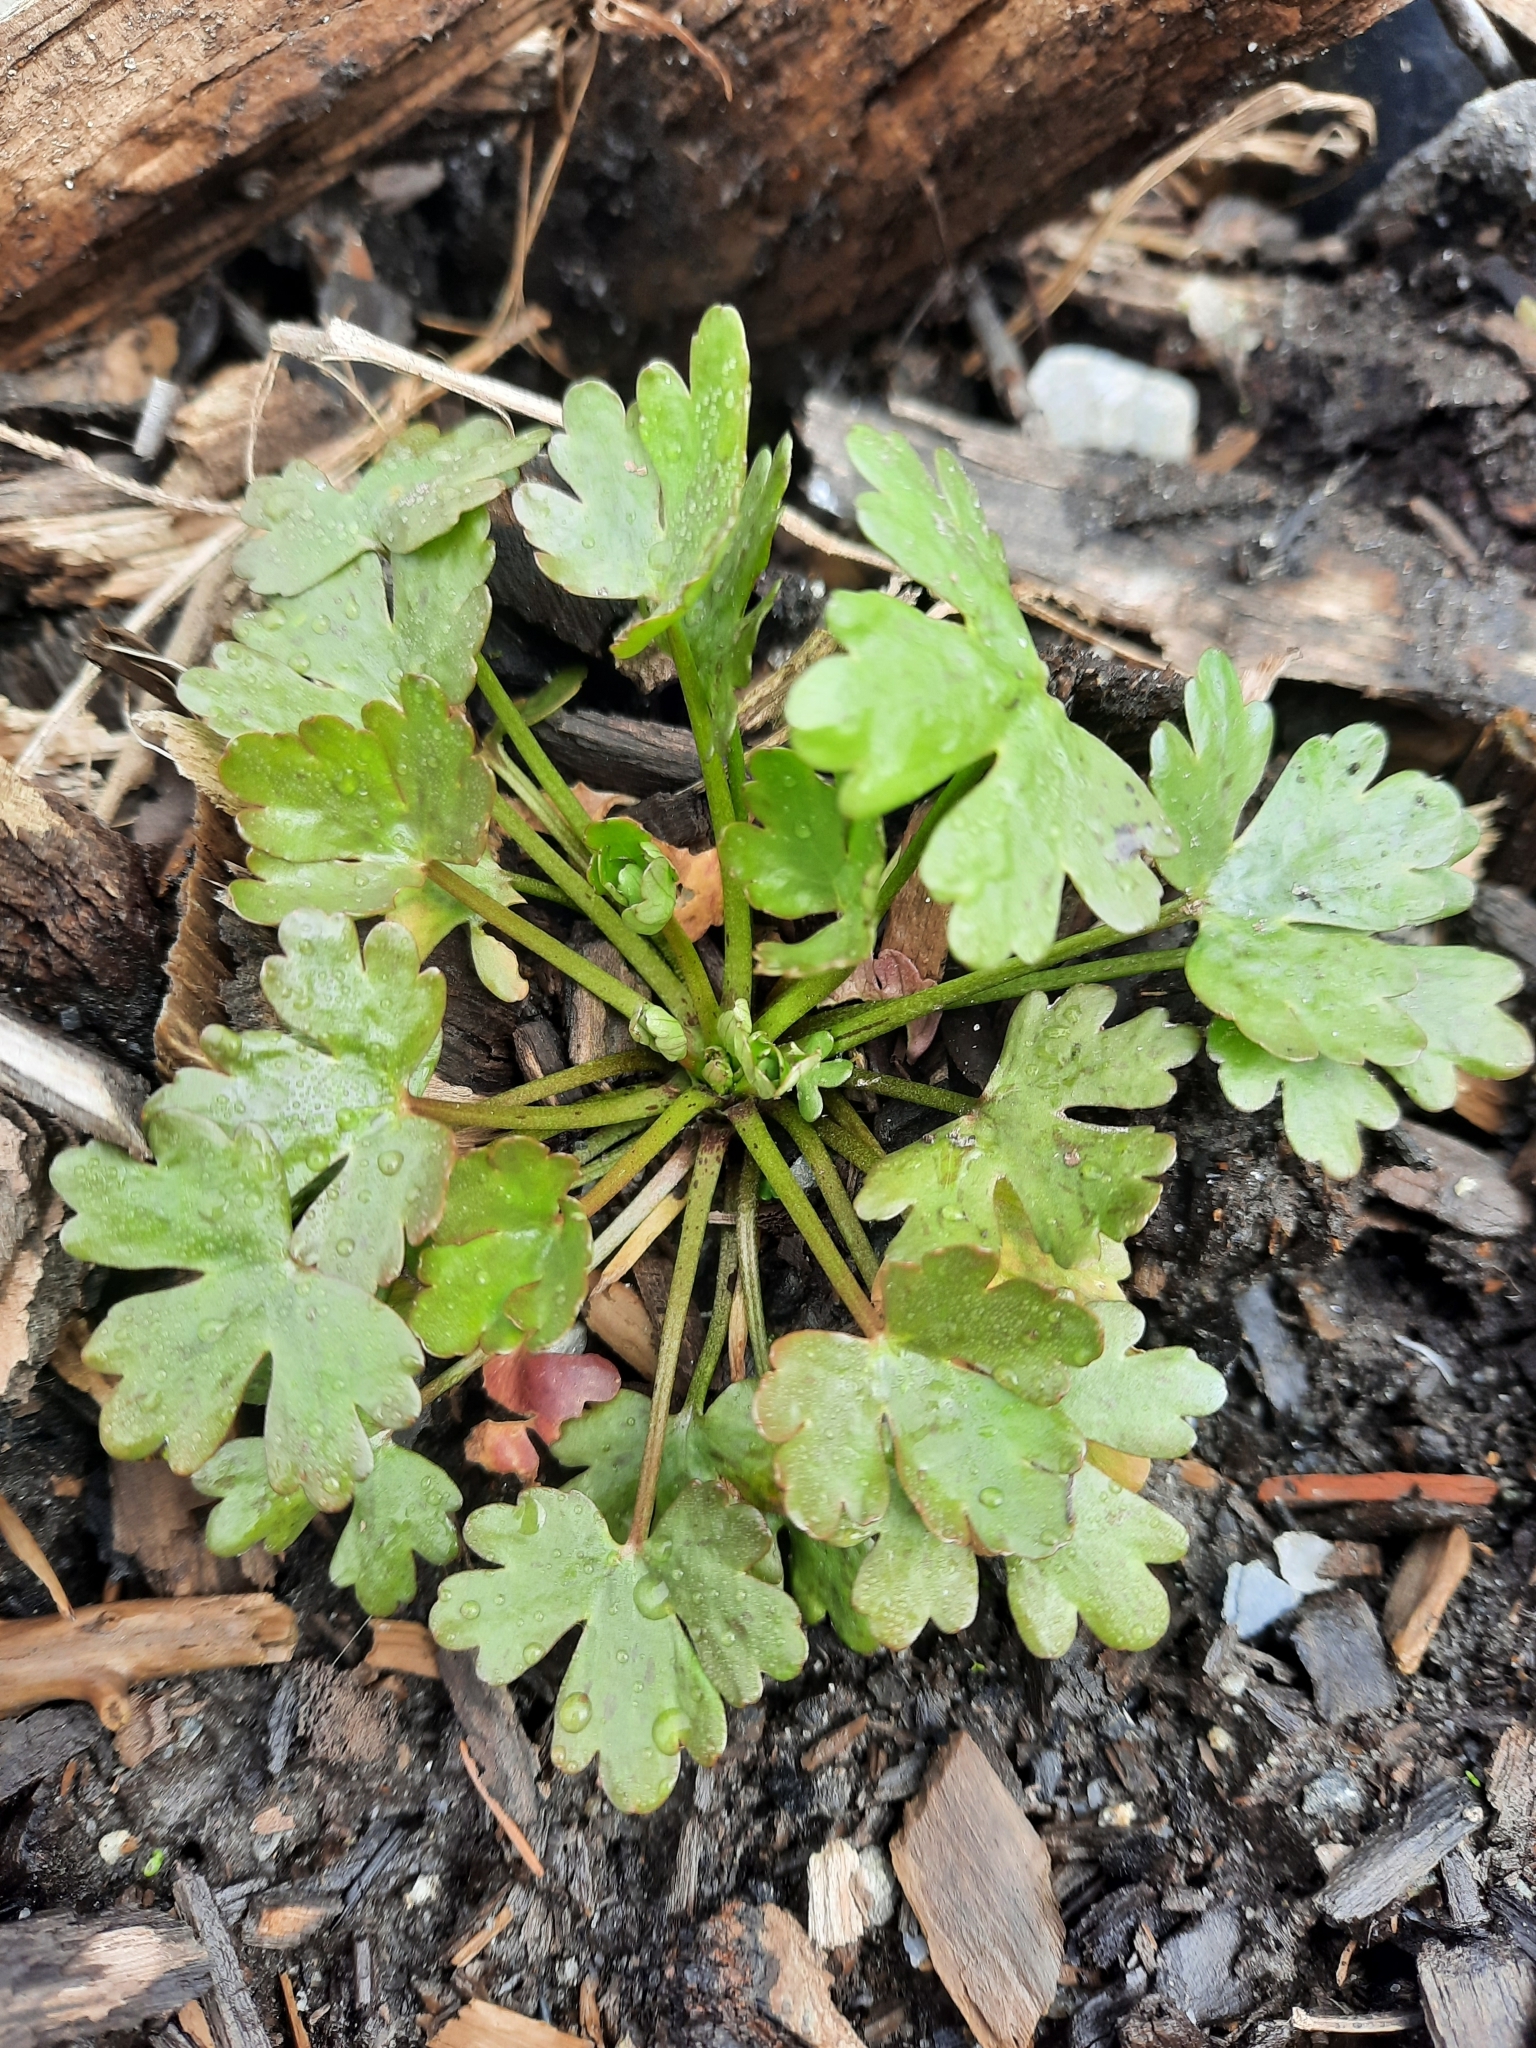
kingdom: Plantae
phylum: Tracheophyta
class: Magnoliopsida
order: Ranunculales
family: Ranunculaceae
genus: Ranunculus
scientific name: Ranunculus sceleratus
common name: Celery-leaved buttercup
